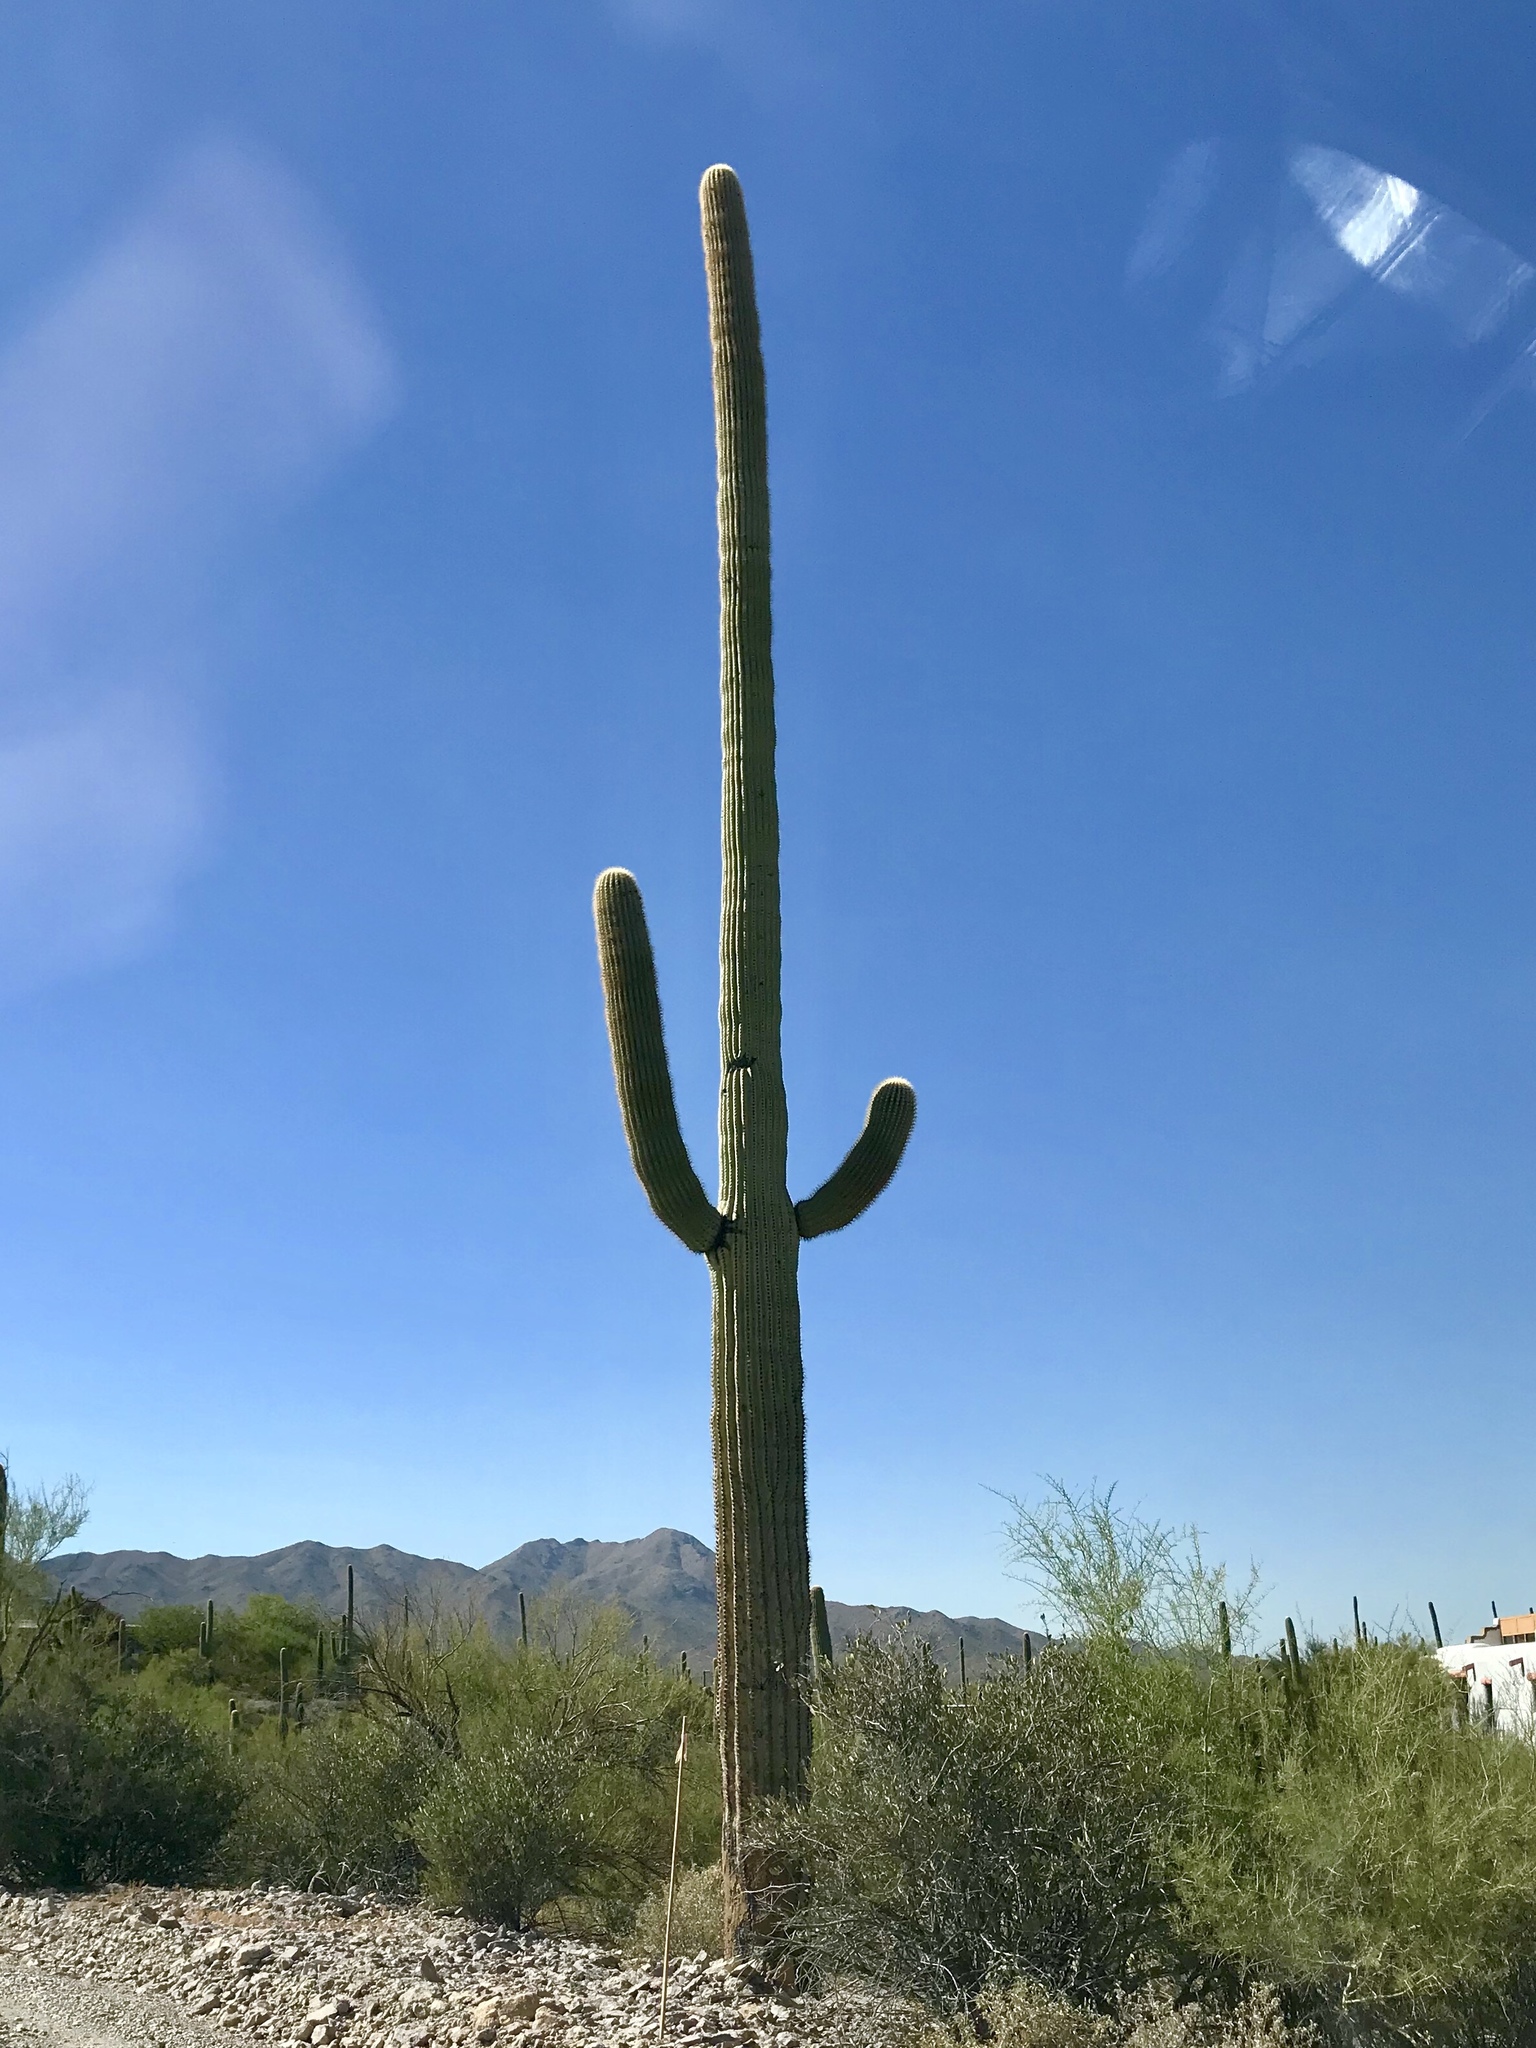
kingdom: Plantae
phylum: Tracheophyta
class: Magnoliopsida
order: Caryophyllales
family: Cactaceae
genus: Carnegiea
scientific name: Carnegiea gigantea
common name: Saguaro
